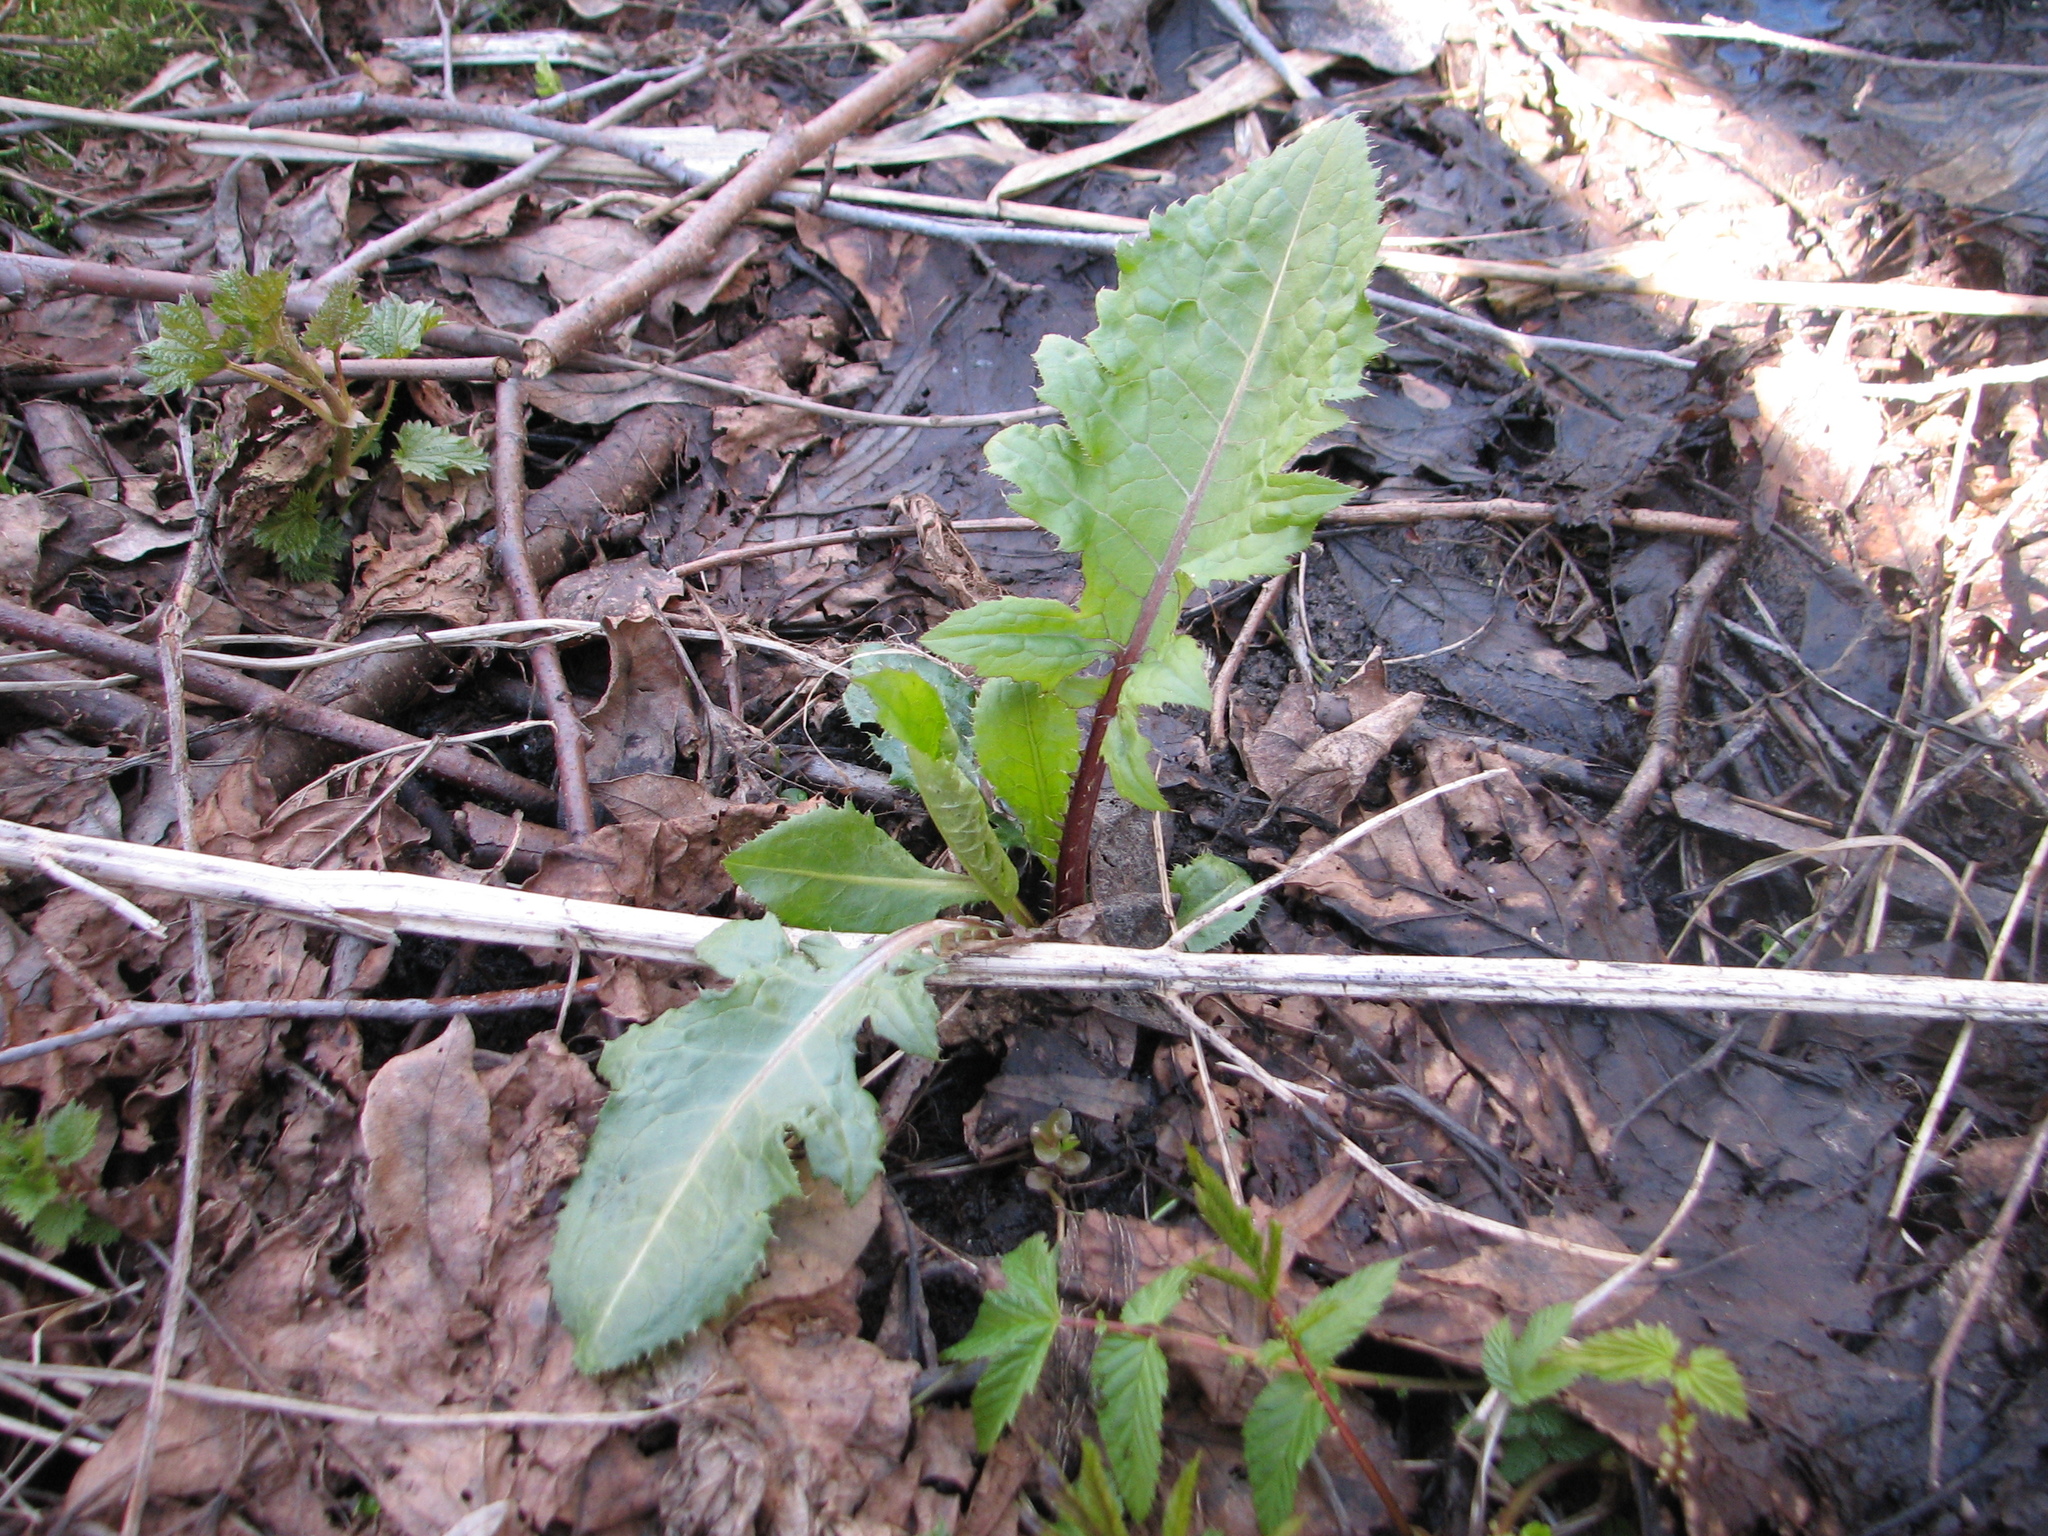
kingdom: Plantae
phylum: Tracheophyta
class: Magnoliopsida
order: Asterales
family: Asteraceae
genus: Cirsium
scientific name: Cirsium oleraceum
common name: Cabbage thistle
